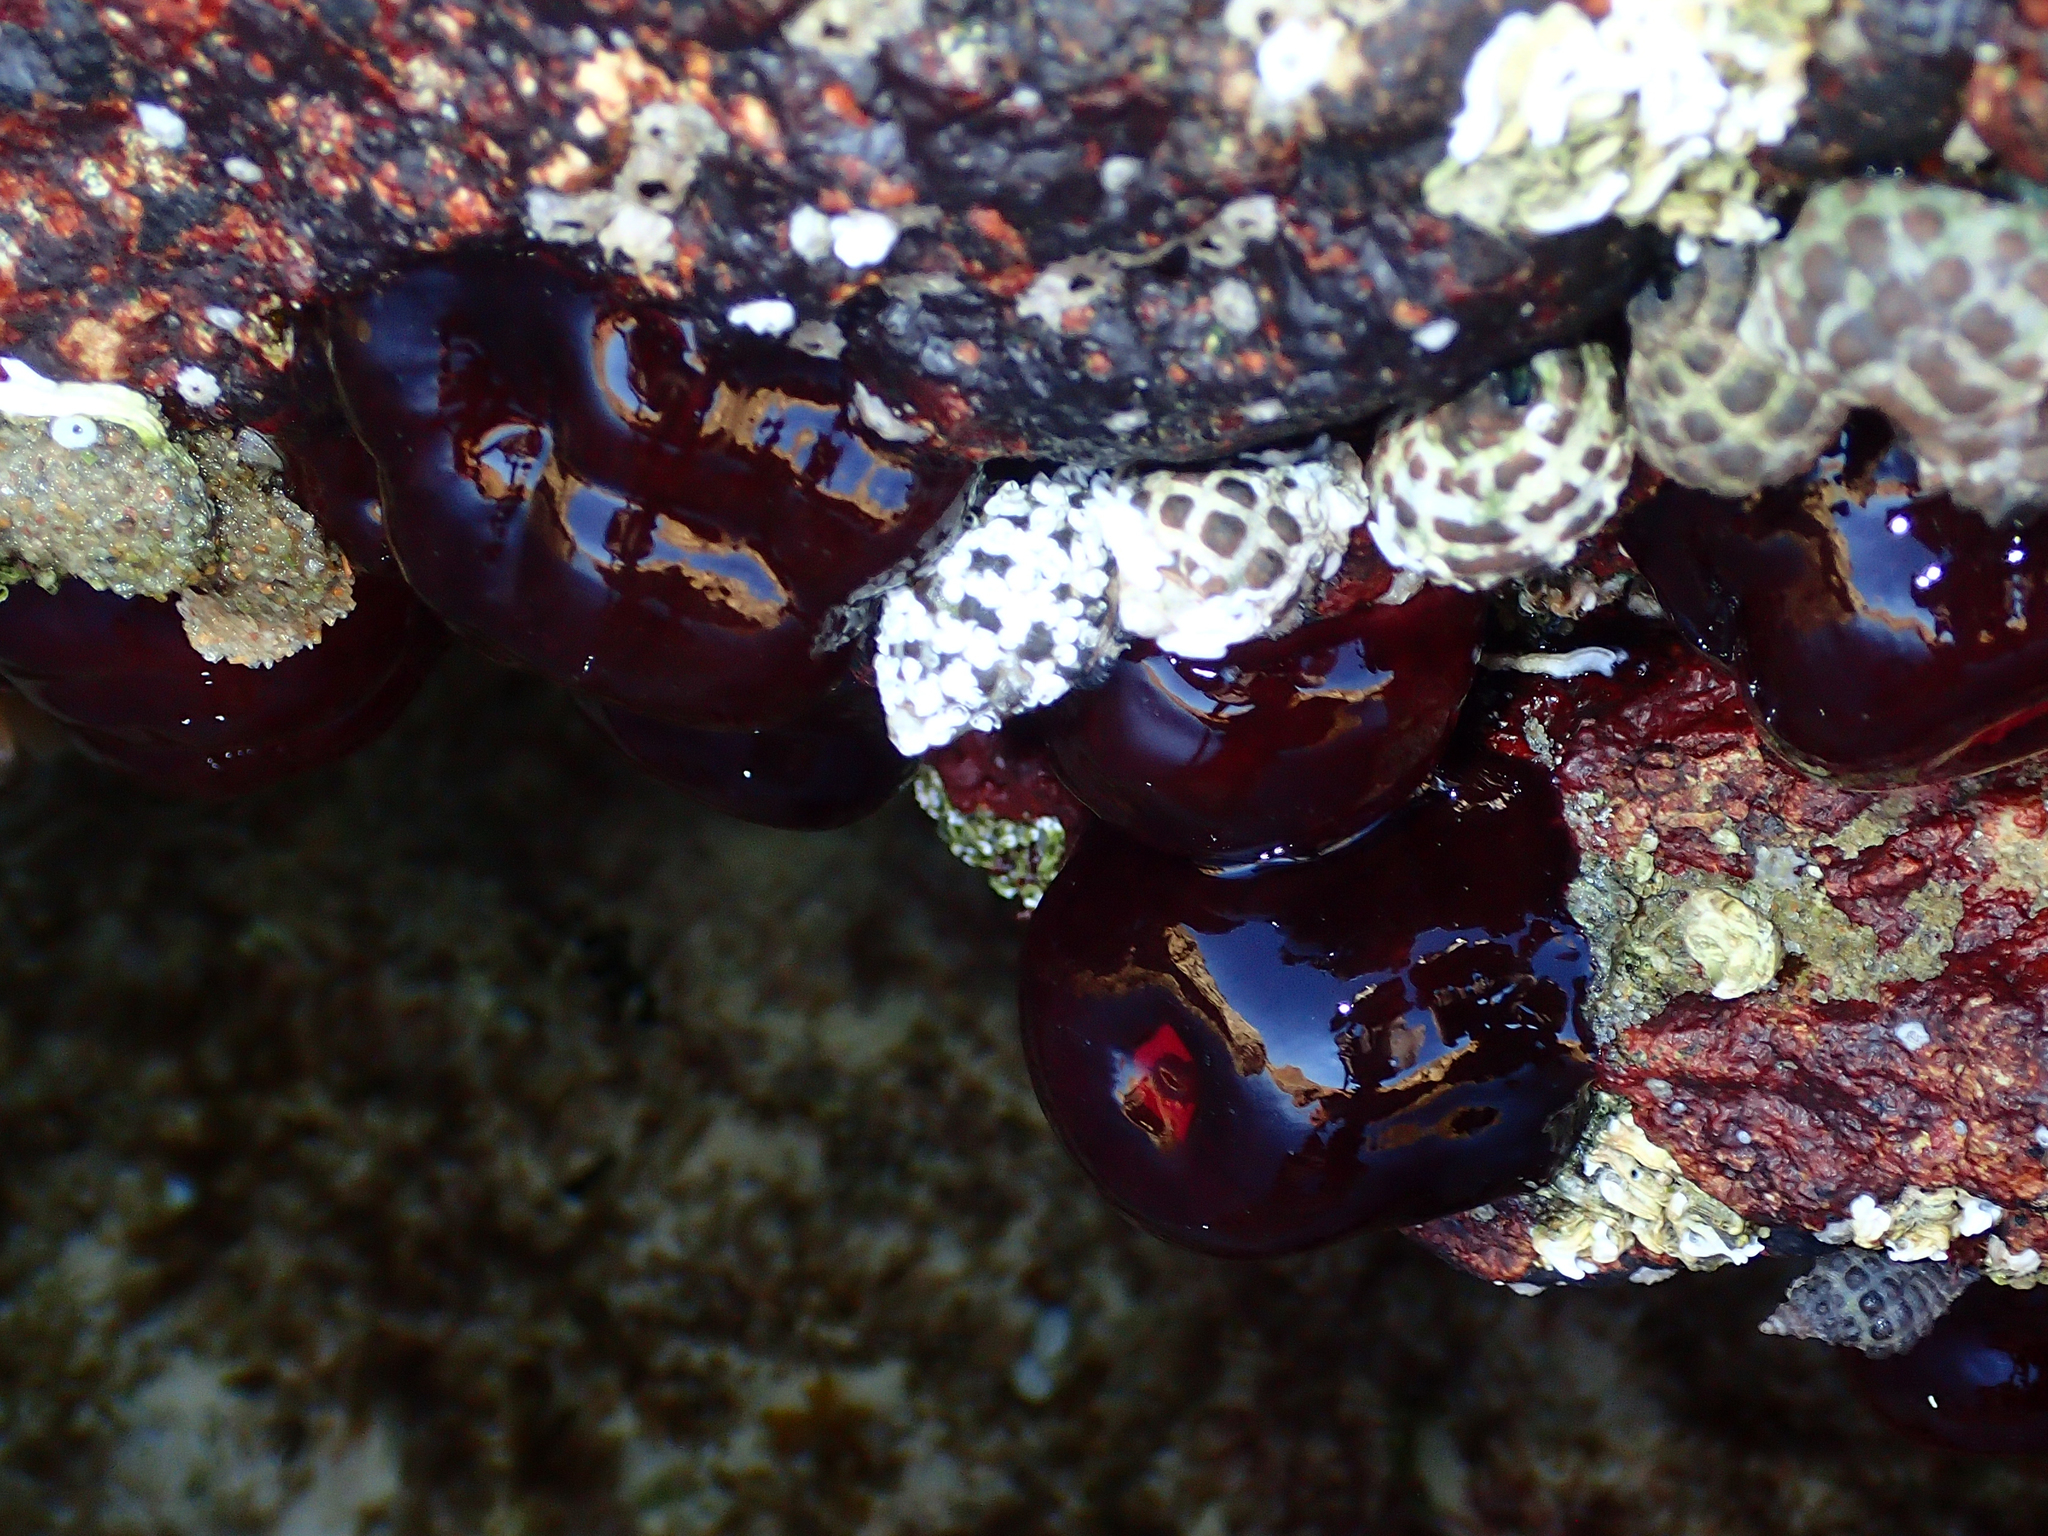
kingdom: Animalia
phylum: Cnidaria
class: Anthozoa
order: Actiniaria
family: Actiniidae
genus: Actinia
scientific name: Actinia tenebrosa
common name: Waratah anemone
